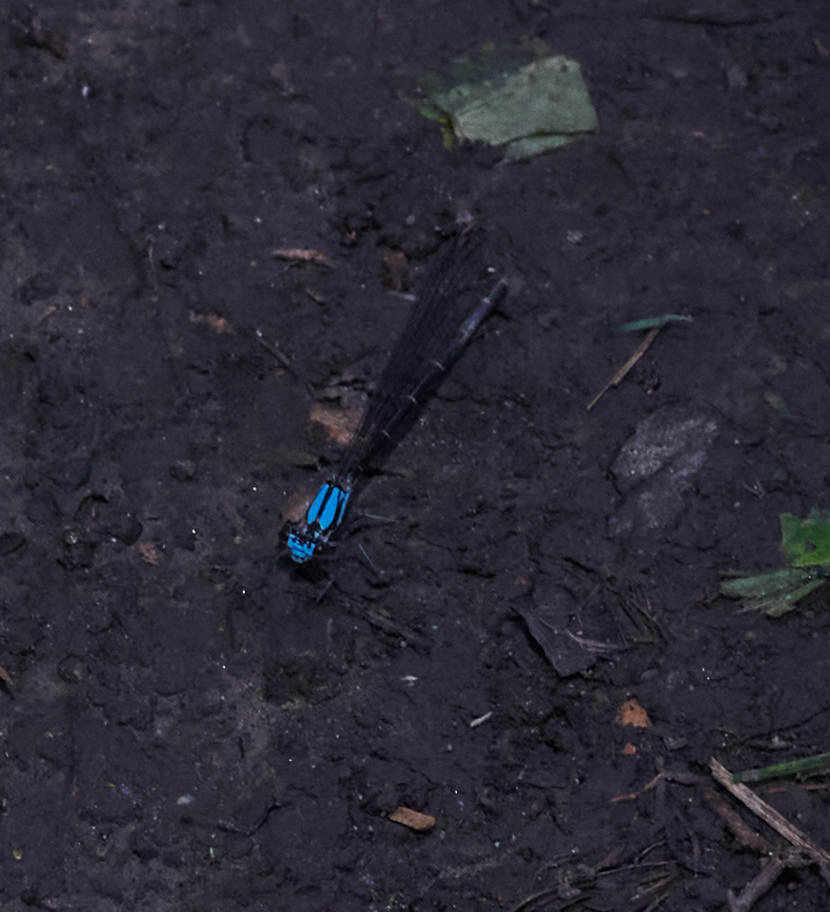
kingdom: Animalia
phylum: Arthropoda
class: Insecta
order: Odonata
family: Coenagrionidae
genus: Argia
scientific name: Argia tibialis
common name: Blue-tipped dancer
